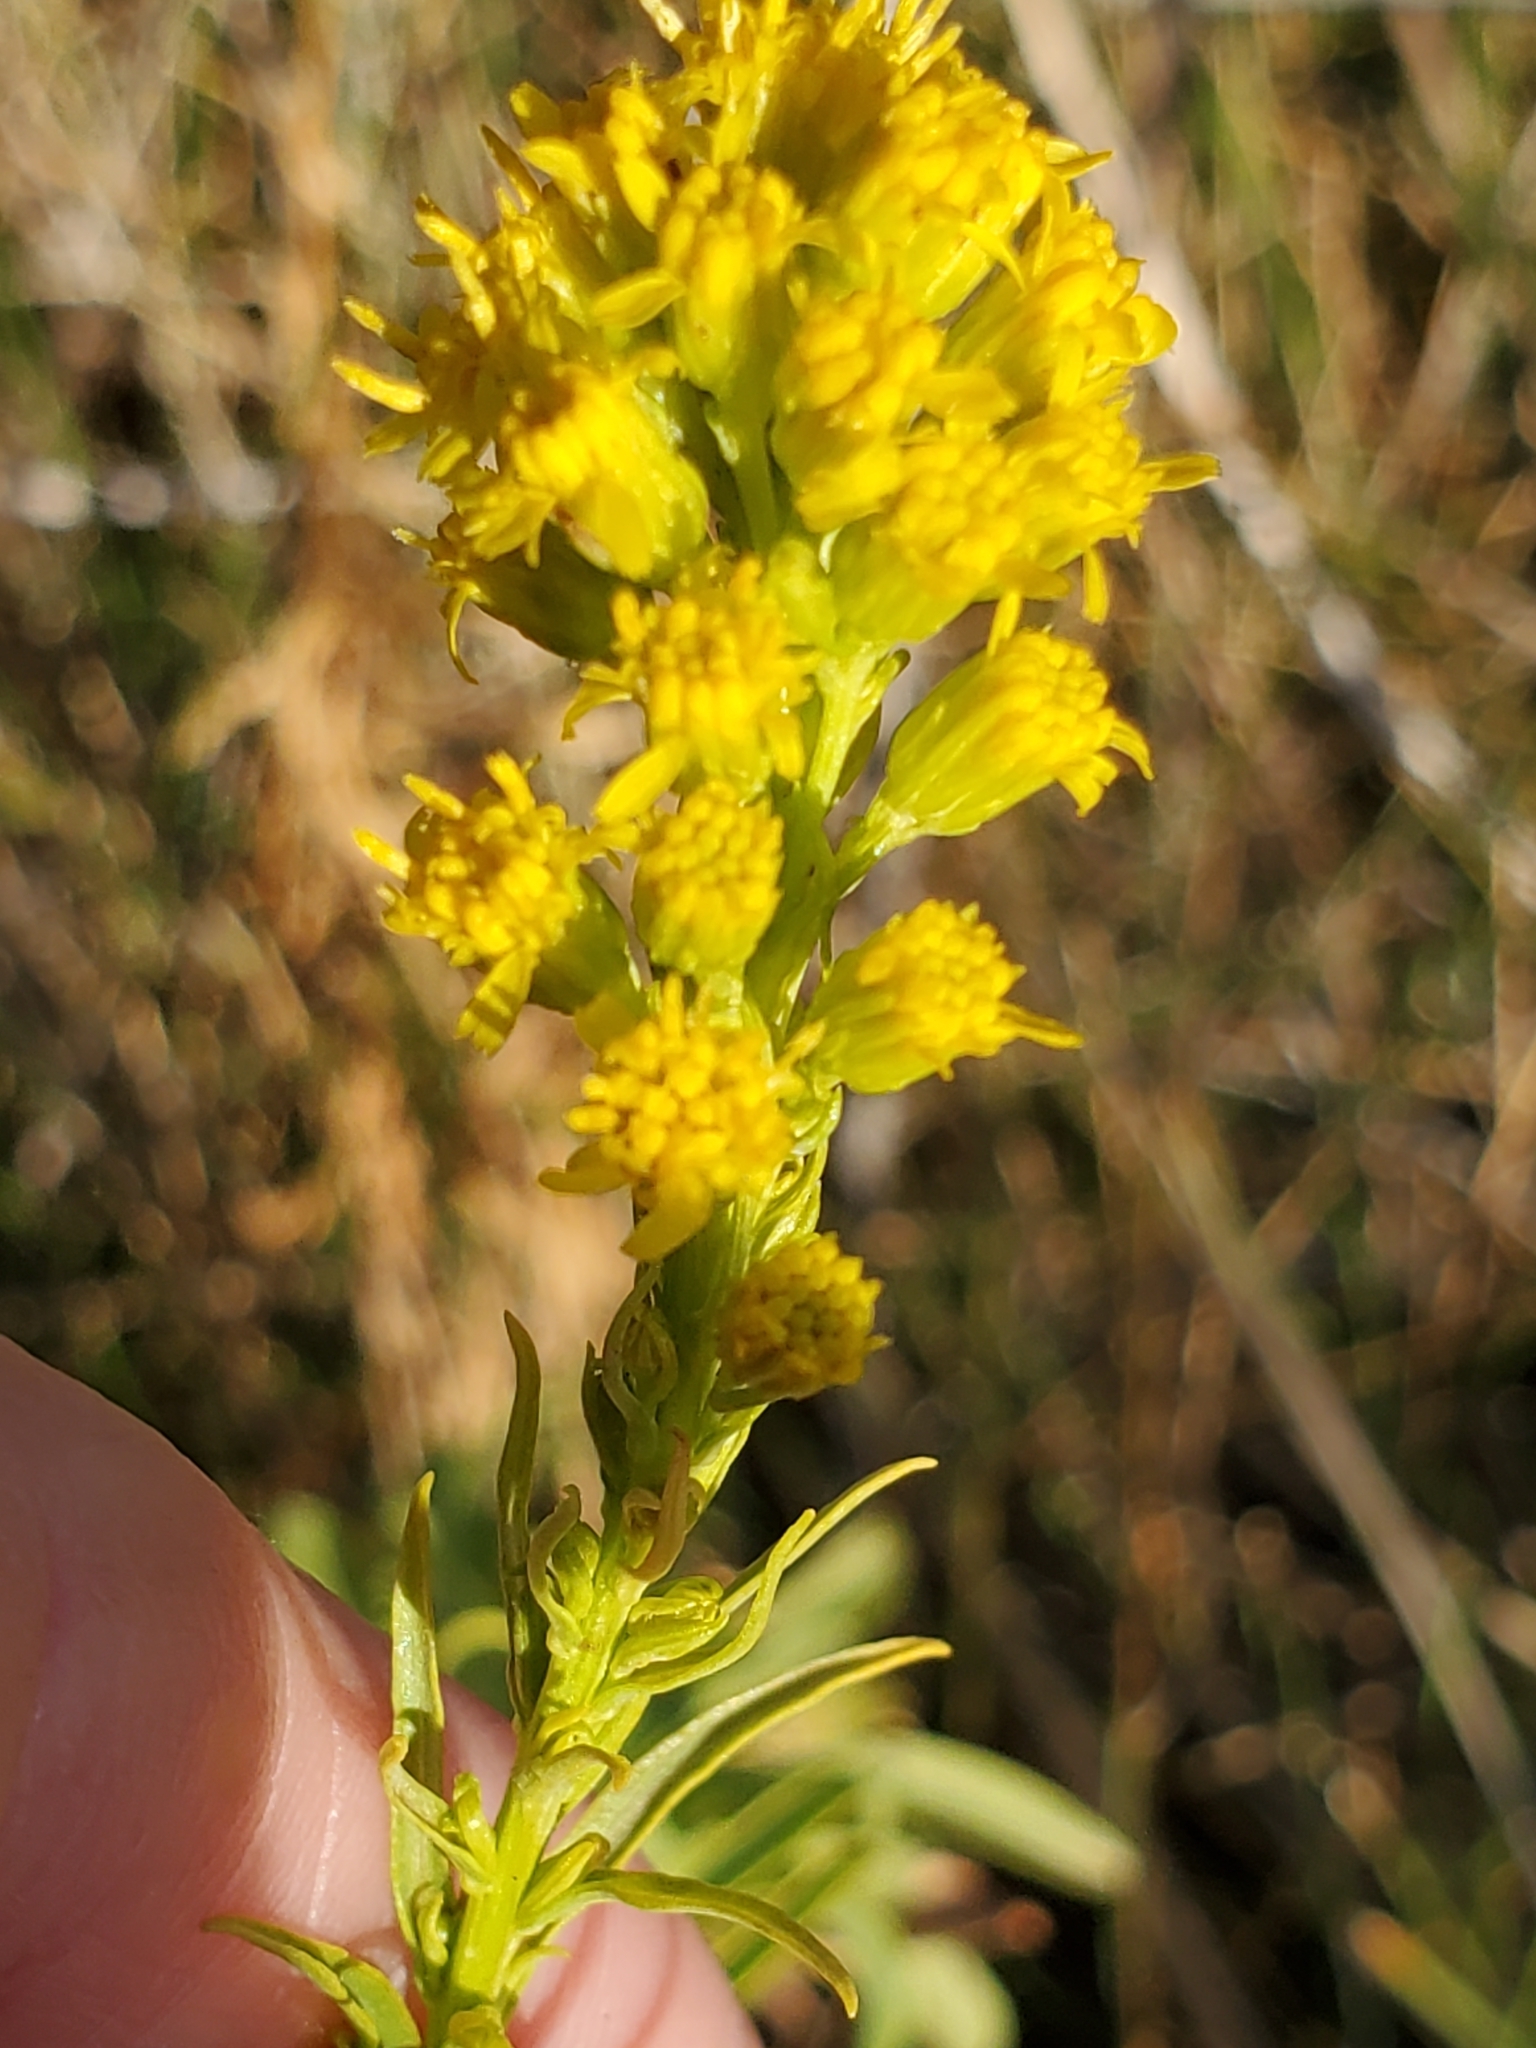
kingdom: Plantae
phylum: Tracheophyta
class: Magnoliopsida
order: Asterales
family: Asteraceae
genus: Solidago
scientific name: Solidago confinis
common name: Southern goldenrod
